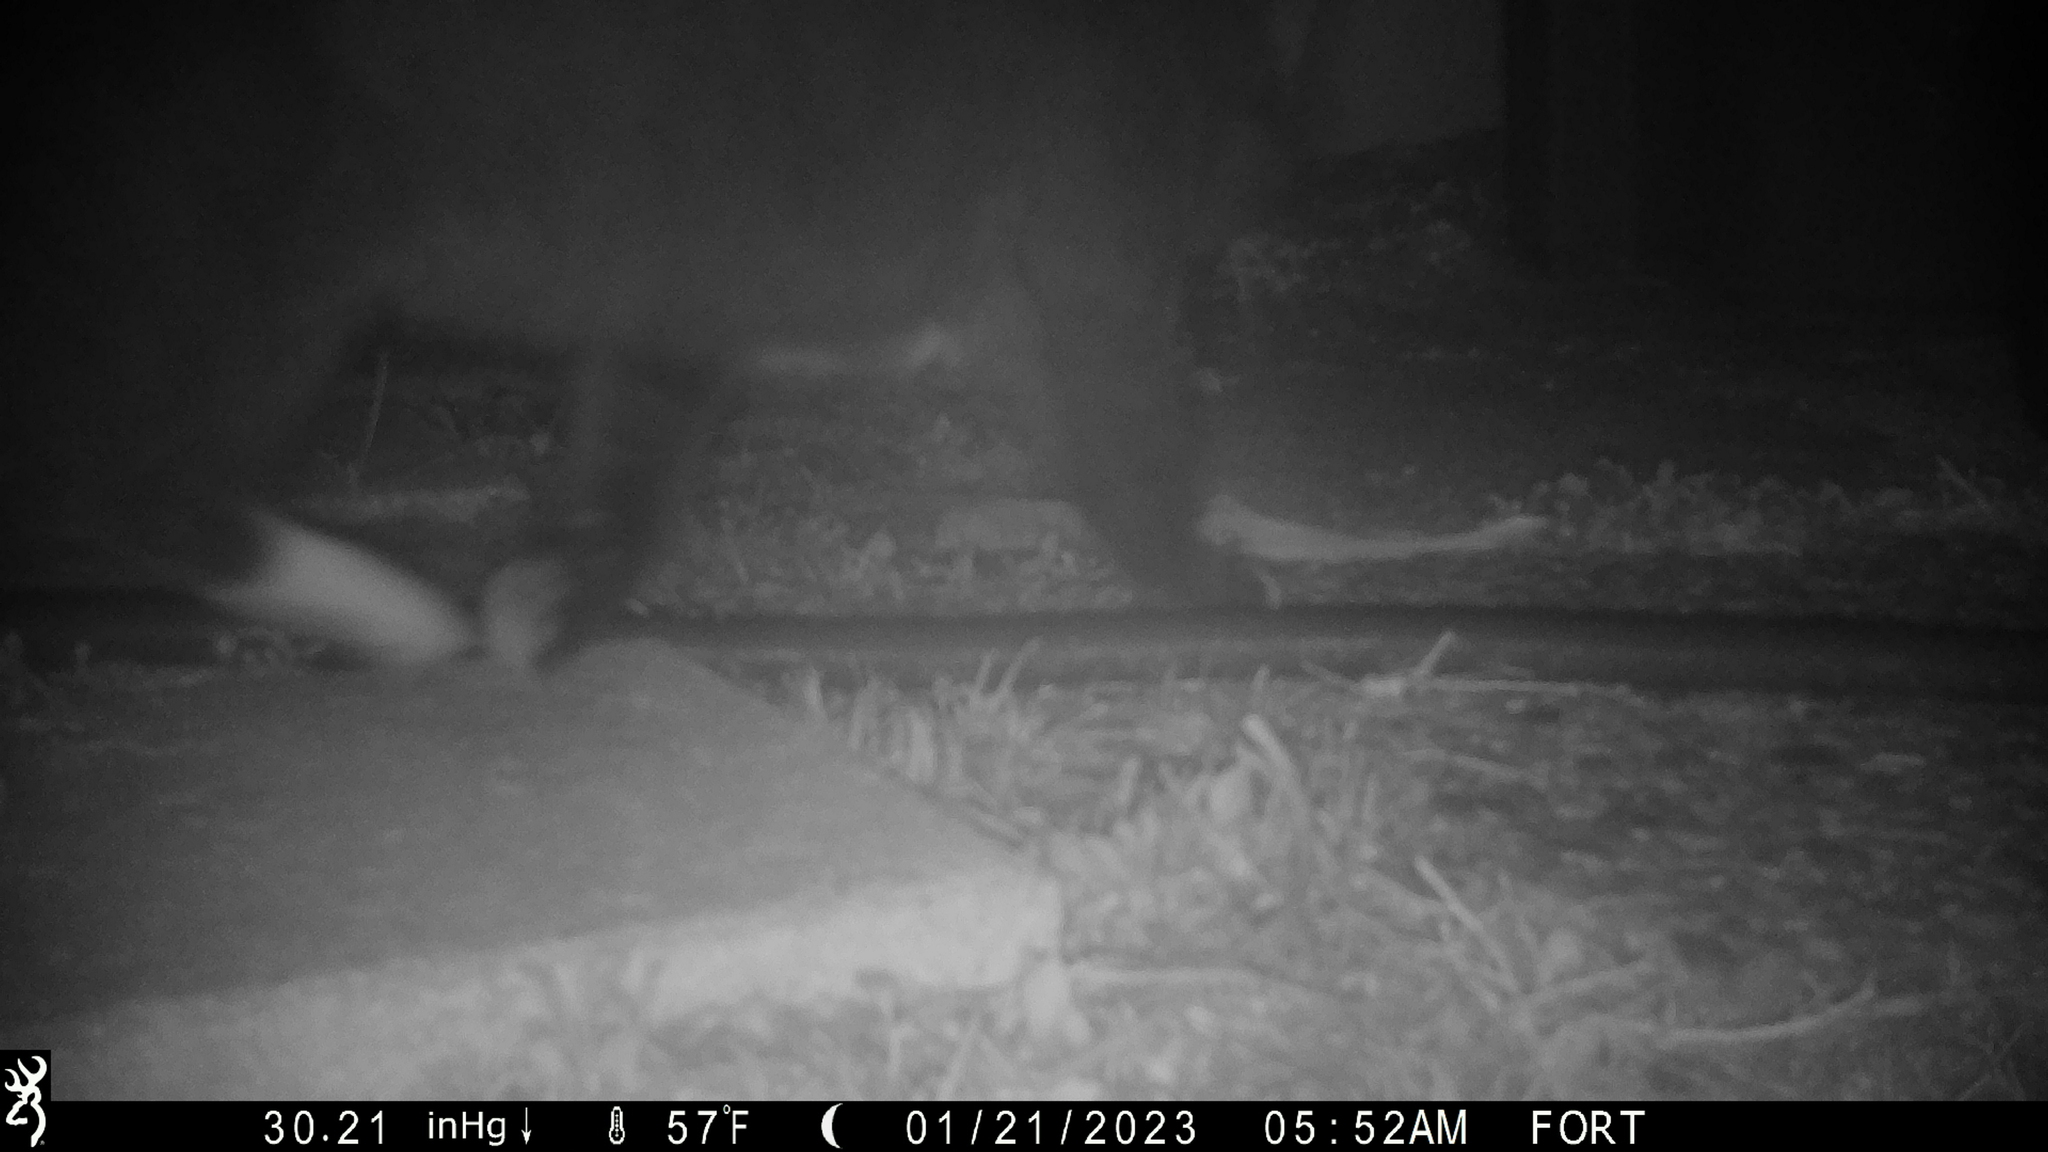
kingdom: Animalia
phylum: Chordata
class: Mammalia
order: Carnivora
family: Felidae
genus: Felis
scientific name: Felis catus
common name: Domestic cat
